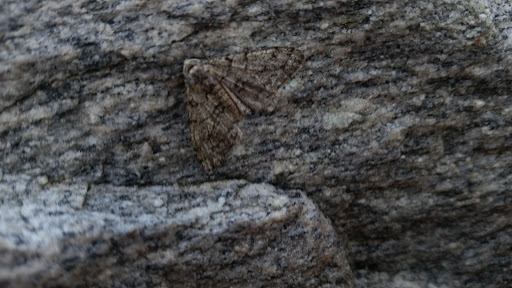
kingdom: Animalia
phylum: Arthropoda
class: Insecta
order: Lepidoptera
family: Geometridae
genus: Phigalia
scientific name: Phigalia strigataria
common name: Small phigalia
